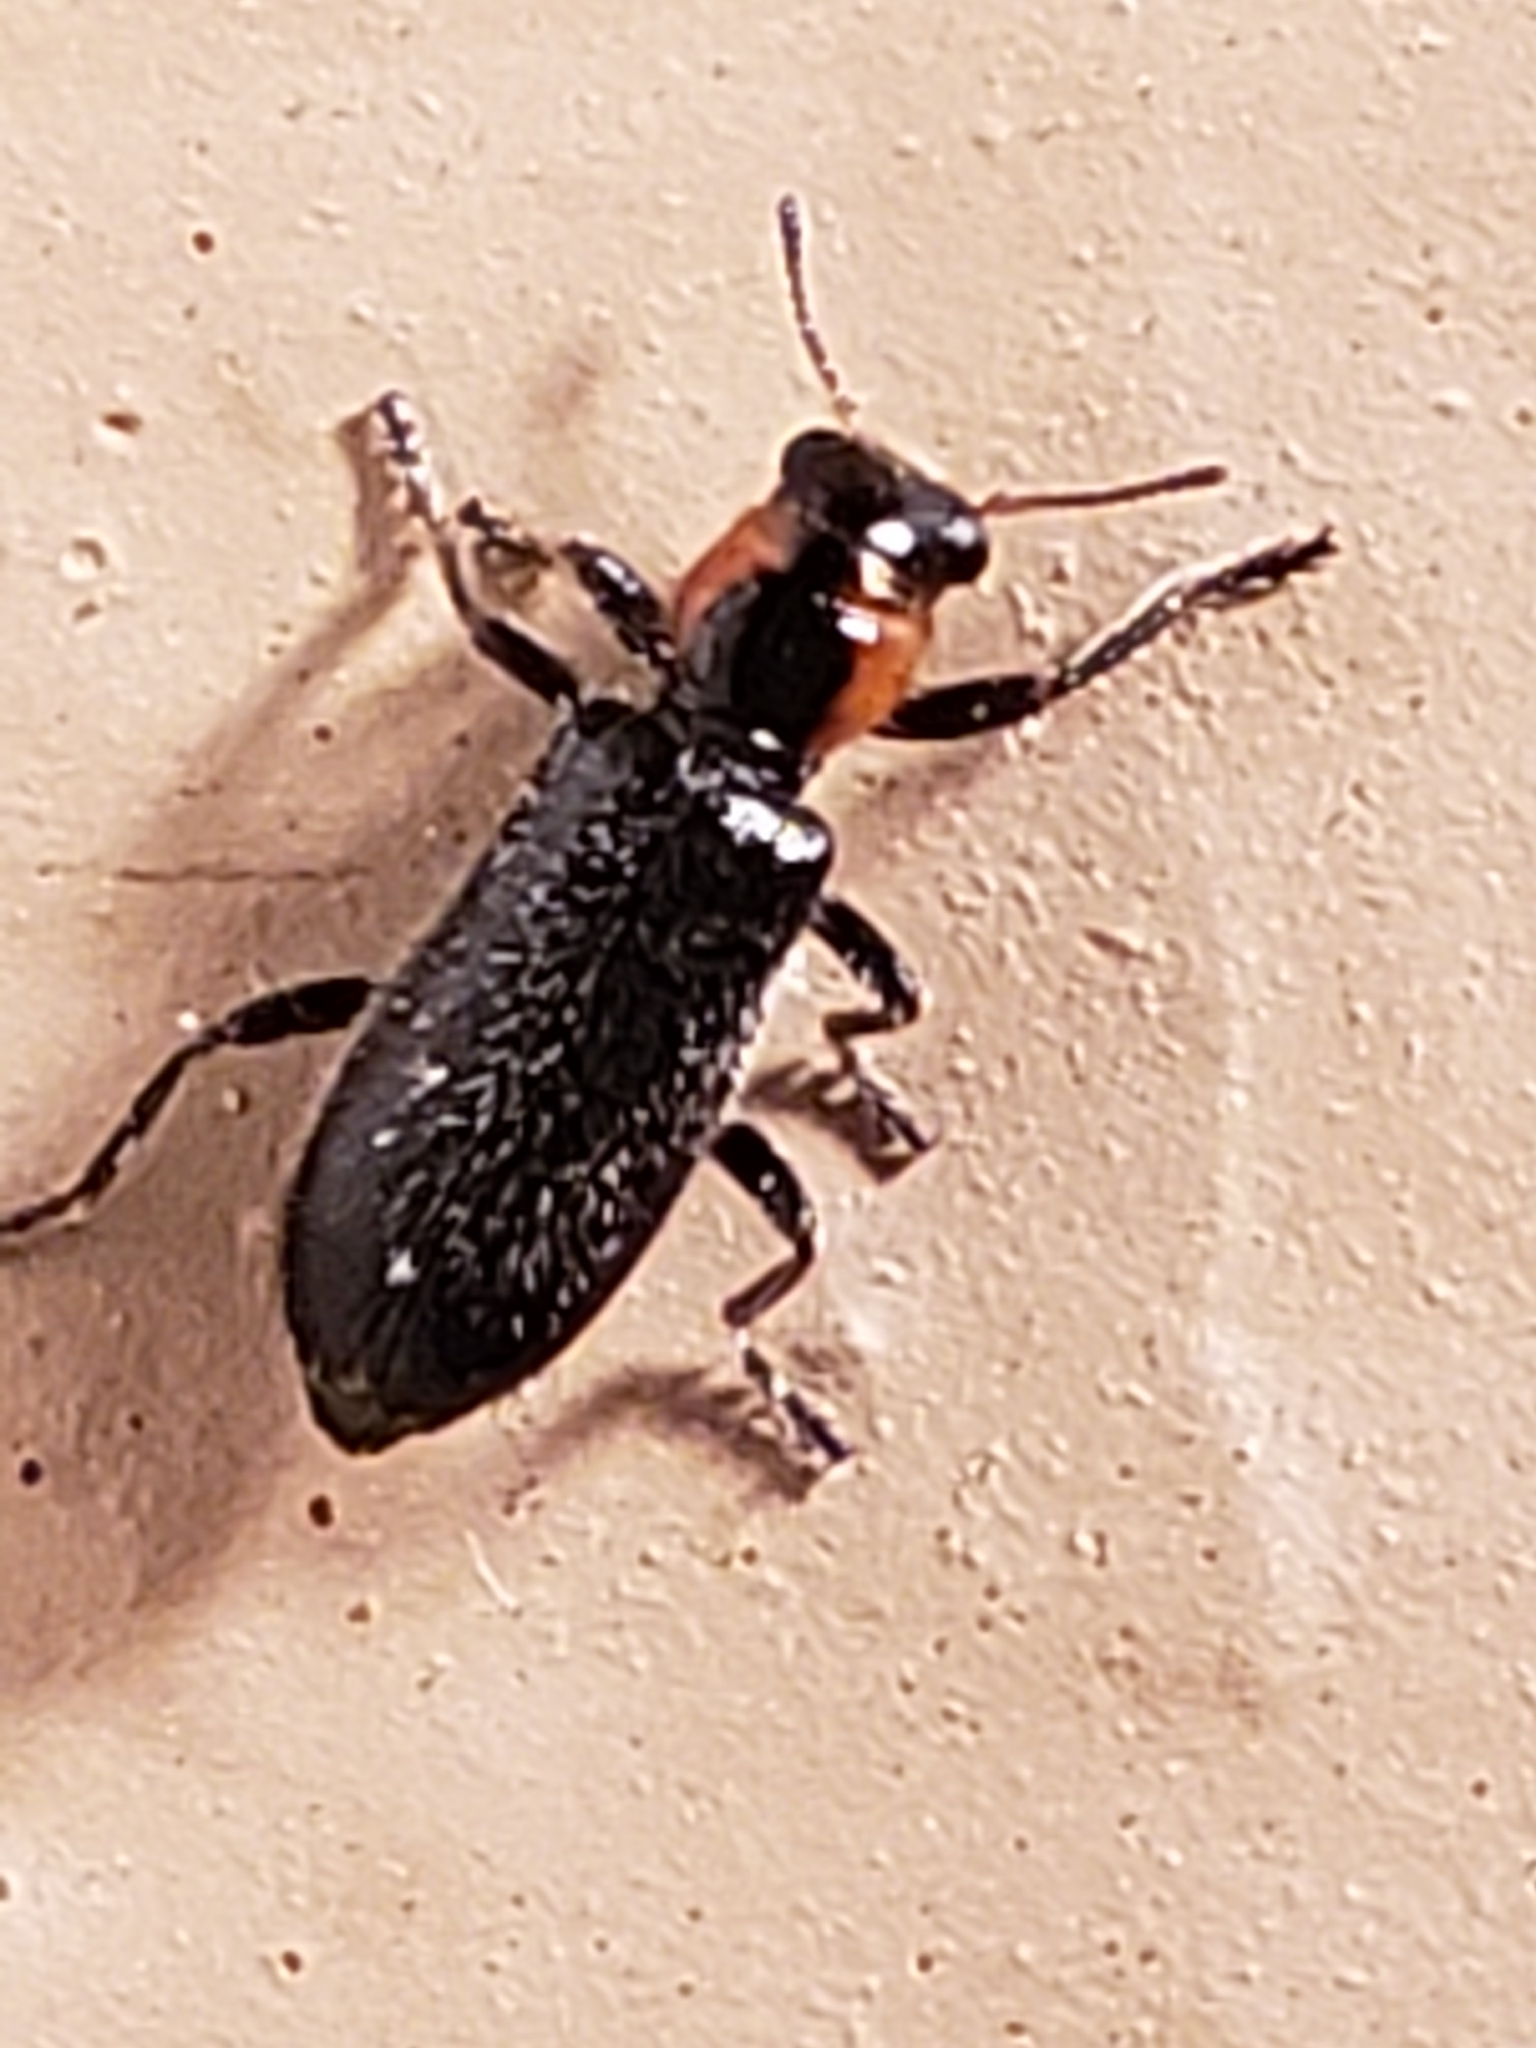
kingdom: Animalia
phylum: Arthropoda
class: Insecta
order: Coleoptera
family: Cleridae
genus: Placopterus
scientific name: Placopterus thoracicus
